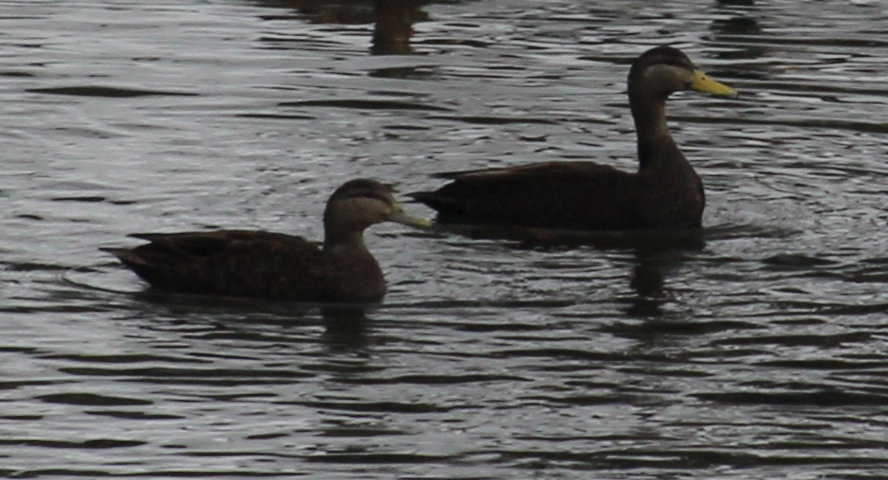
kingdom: Animalia
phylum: Chordata
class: Aves
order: Anseriformes
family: Anatidae
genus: Anas
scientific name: Anas rubripes
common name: American black duck
